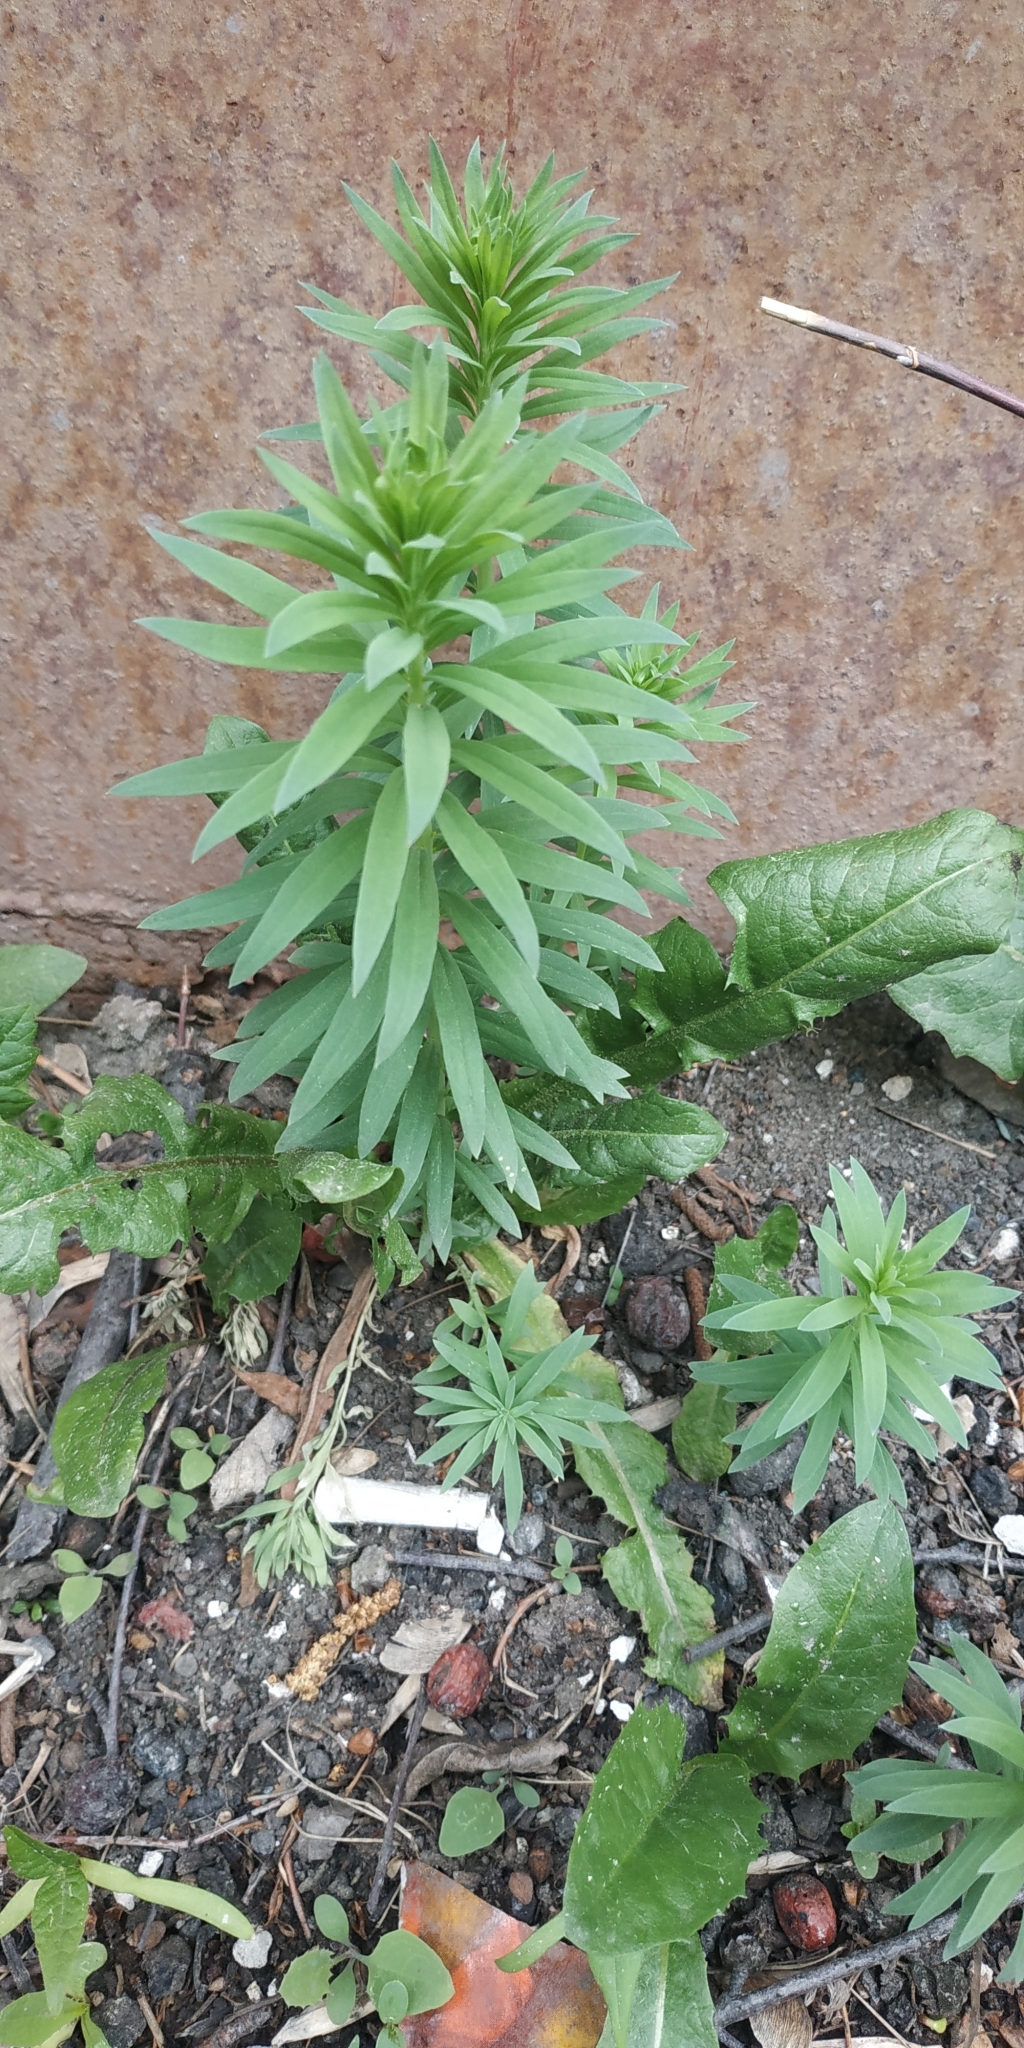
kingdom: Plantae
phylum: Tracheophyta
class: Magnoliopsida
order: Lamiales
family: Plantaginaceae
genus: Linaria
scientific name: Linaria vulgaris
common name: Butter and eggs
